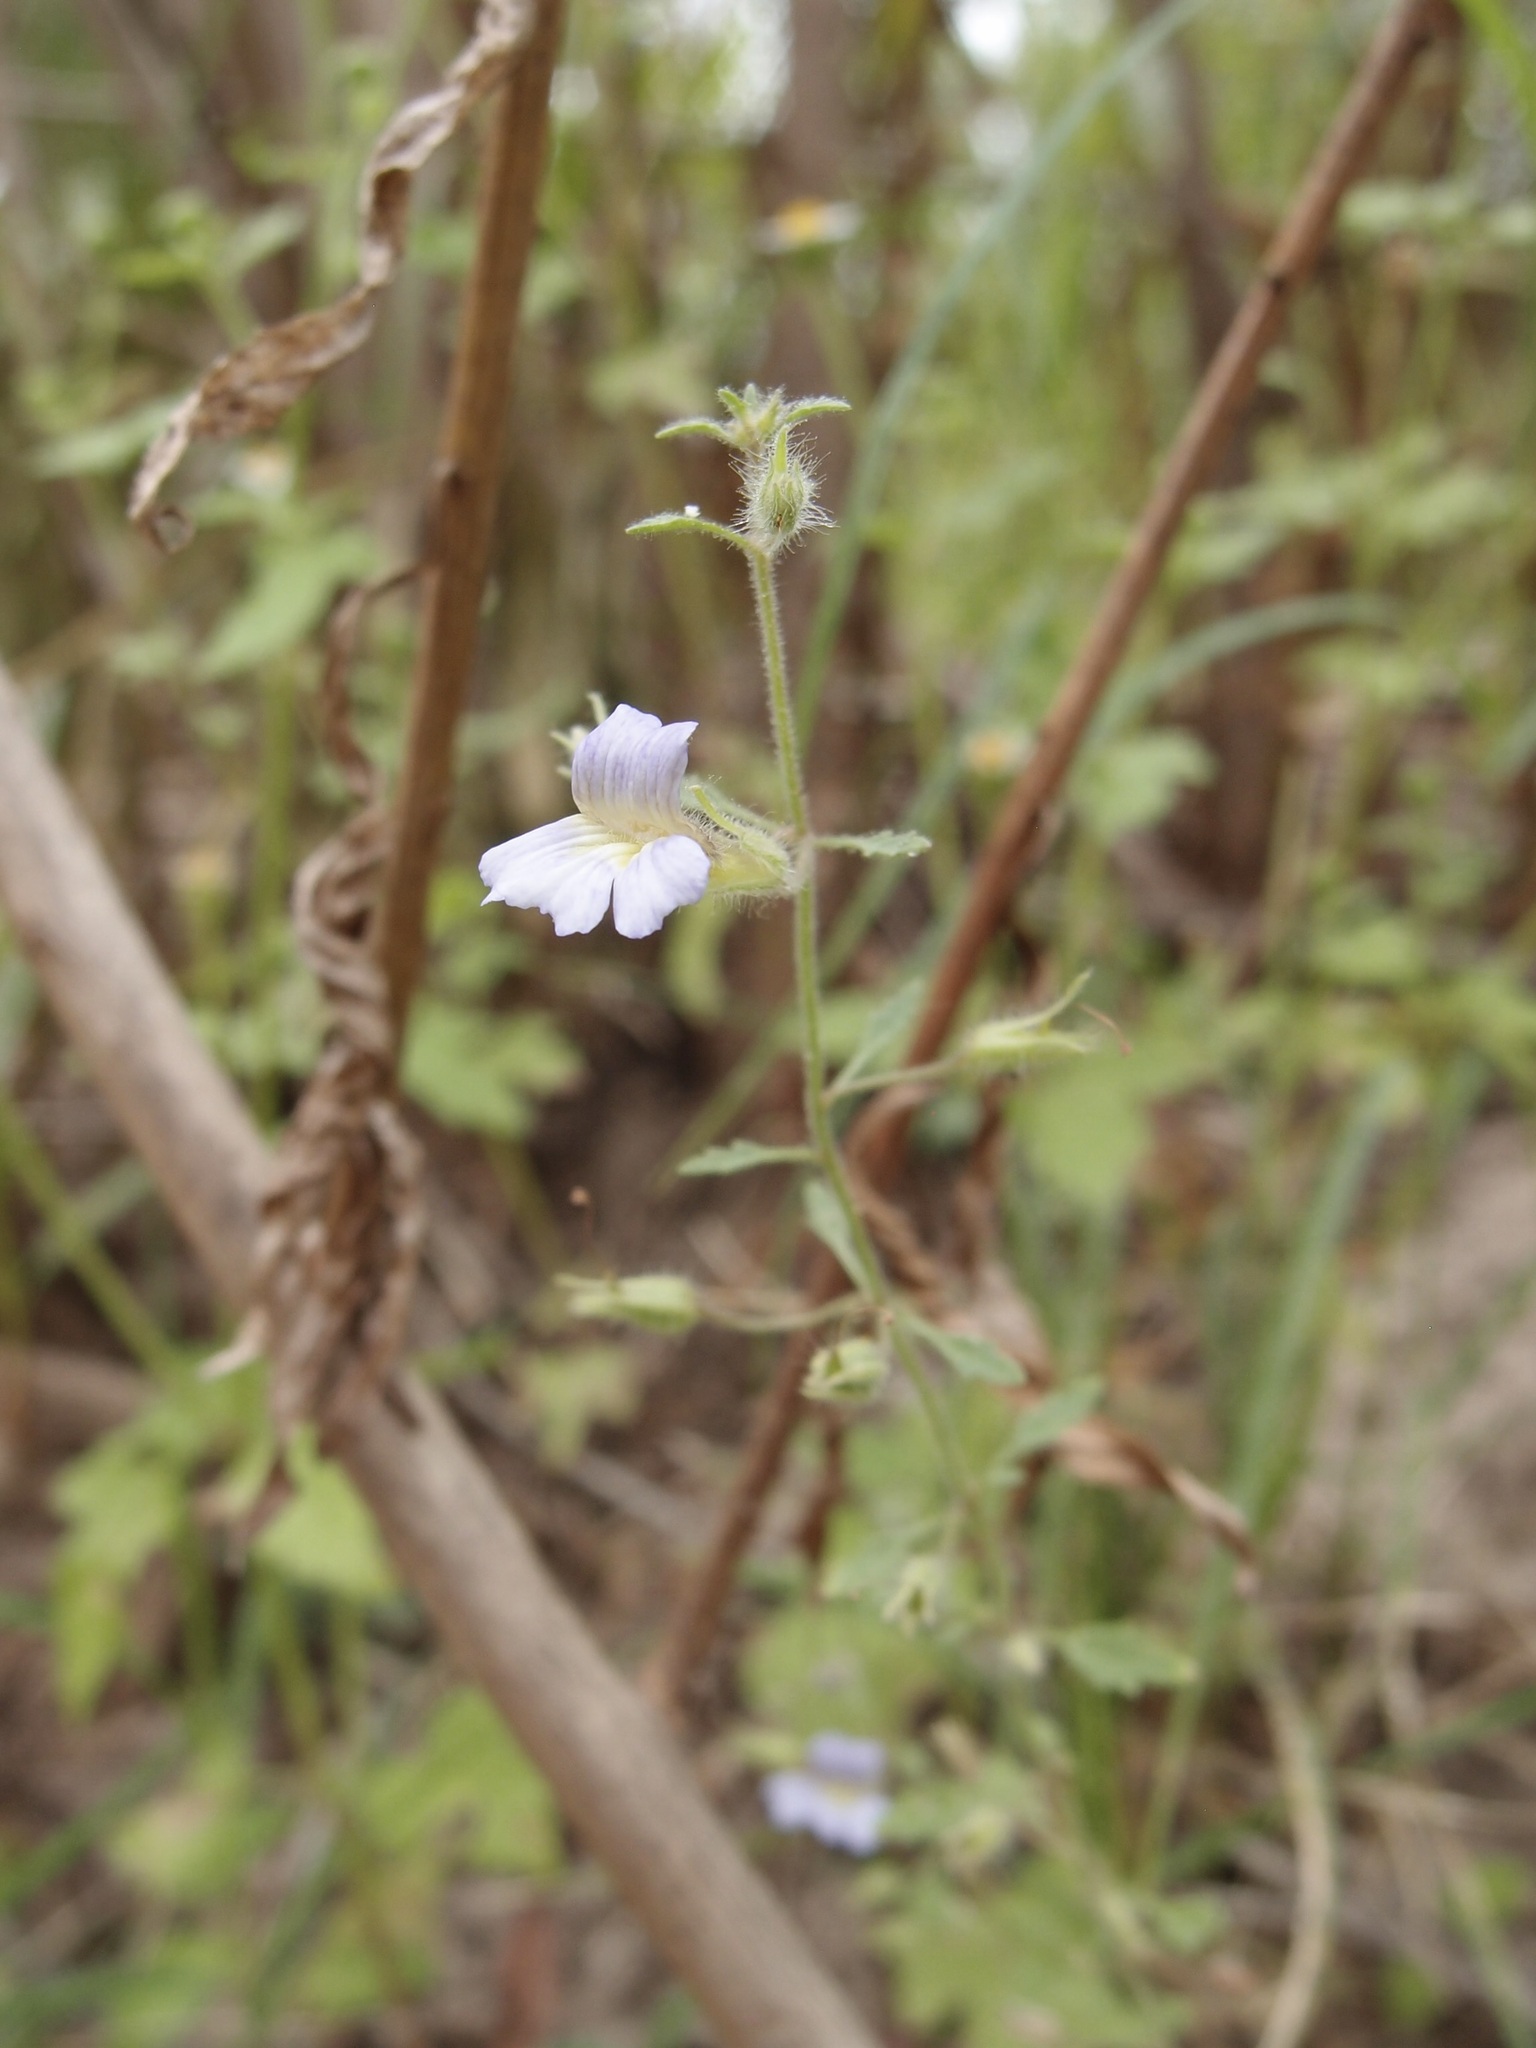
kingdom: Plantae
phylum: Tracheophyta
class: Magnoliopsida
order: Lamiales
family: Plantaginaceae
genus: Stemodia
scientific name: Stemodia palmeri
